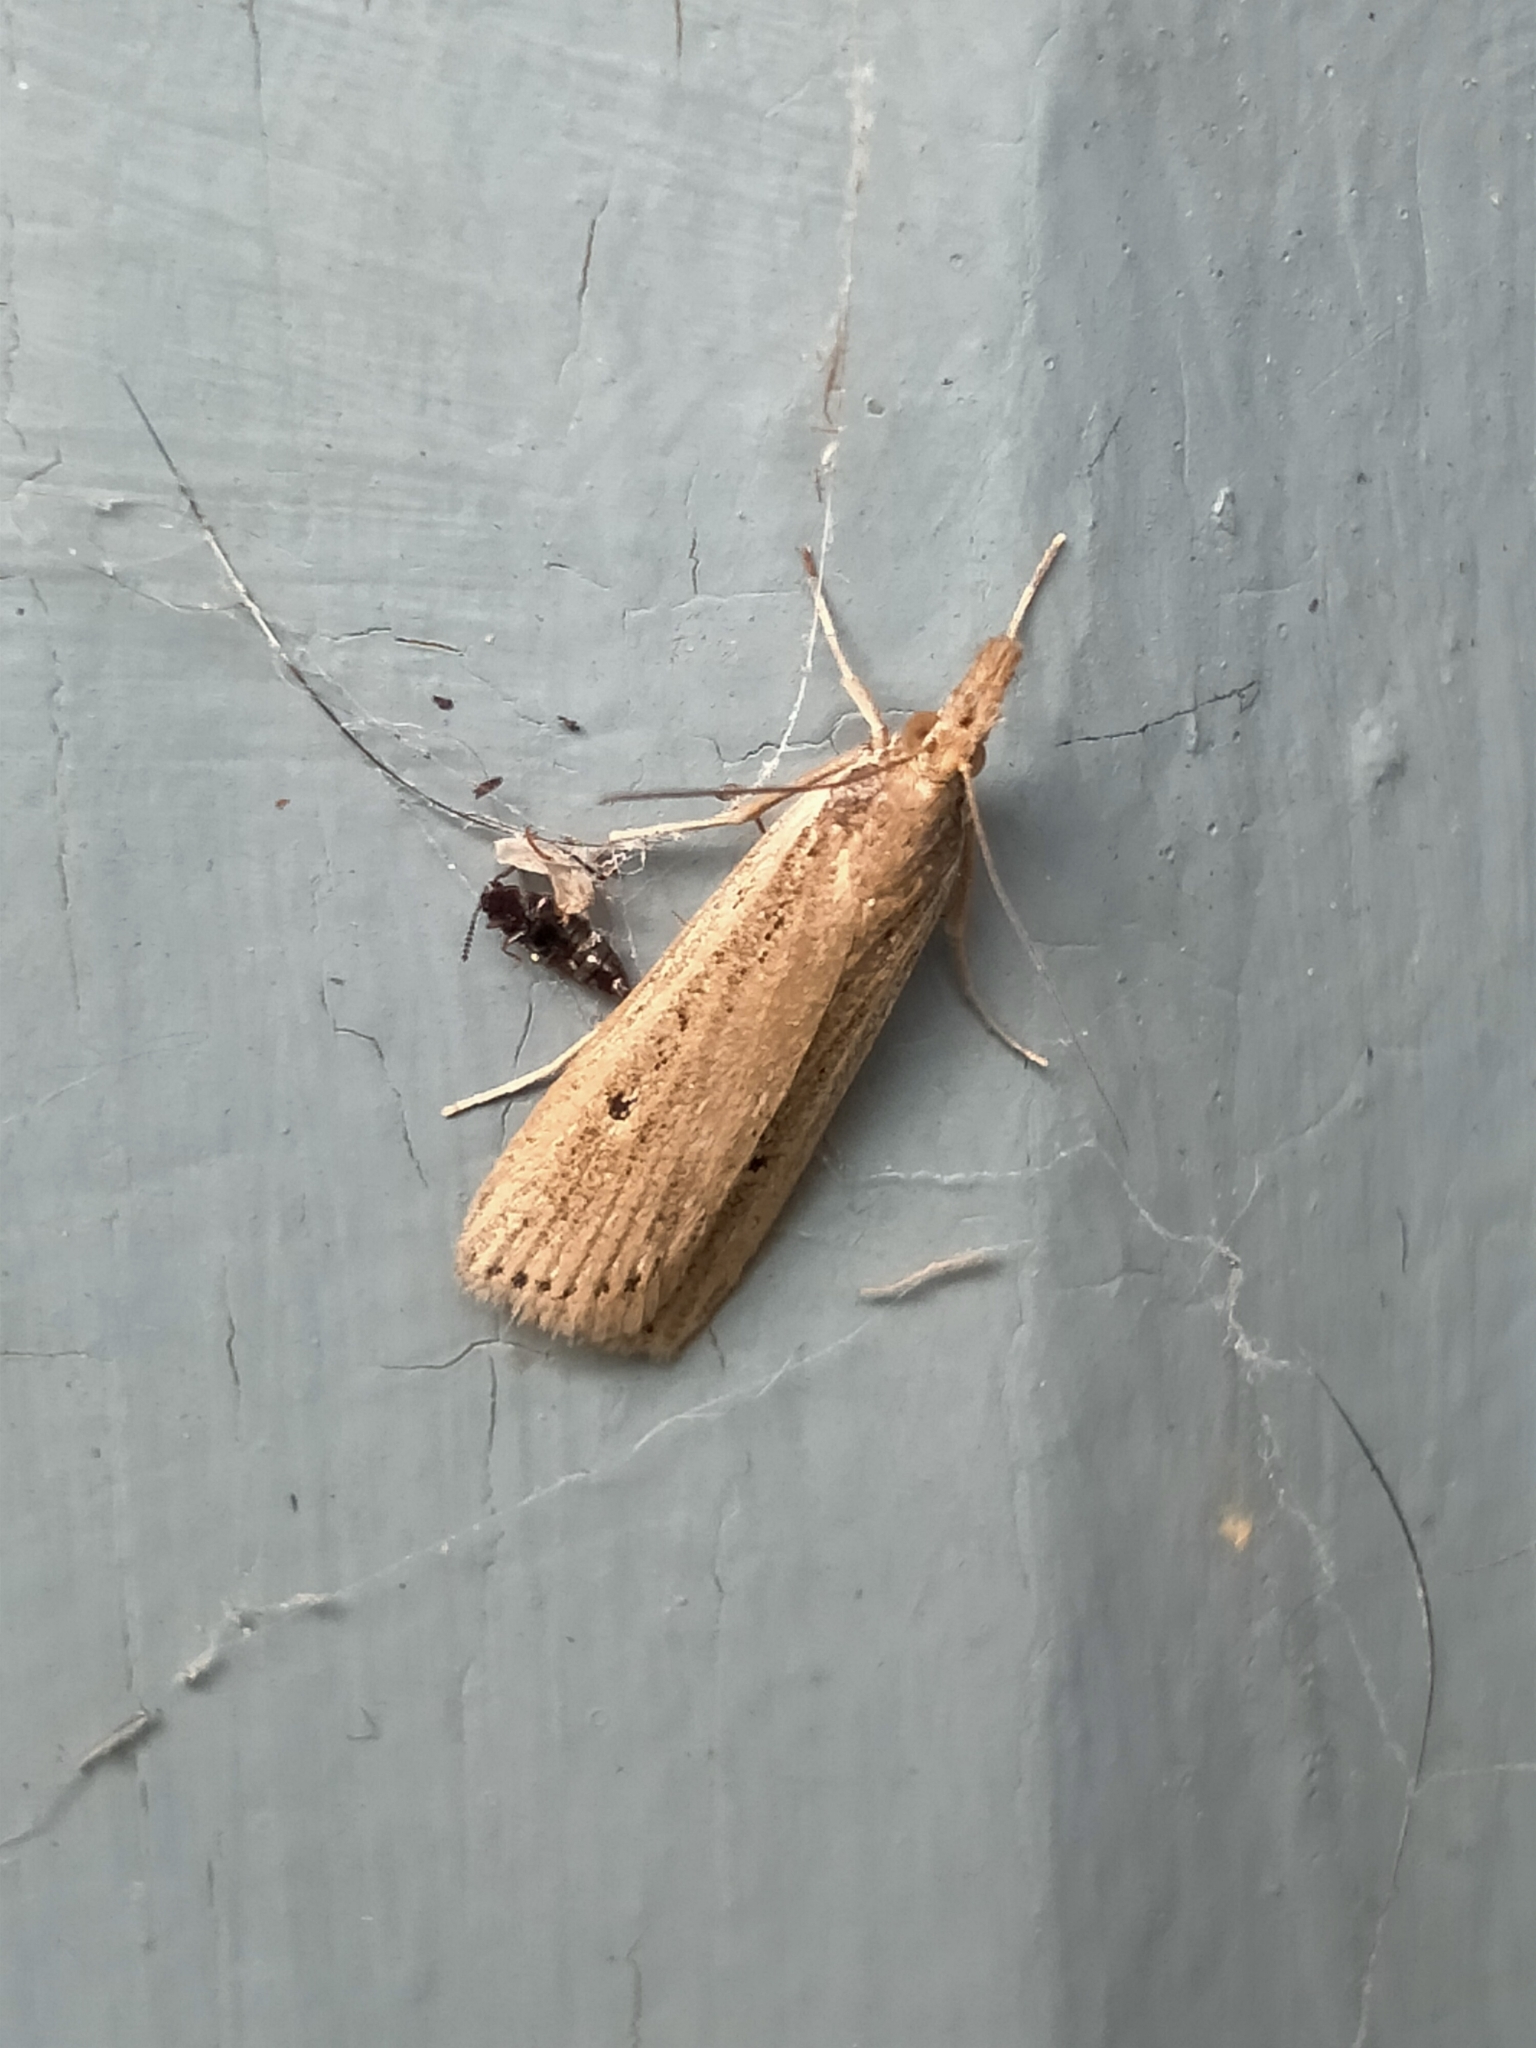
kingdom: Animalia
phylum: Arthropoda
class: Insecta
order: Lepidoptera
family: Crambidae
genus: Eudonia
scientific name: Eudonia sabulosella
